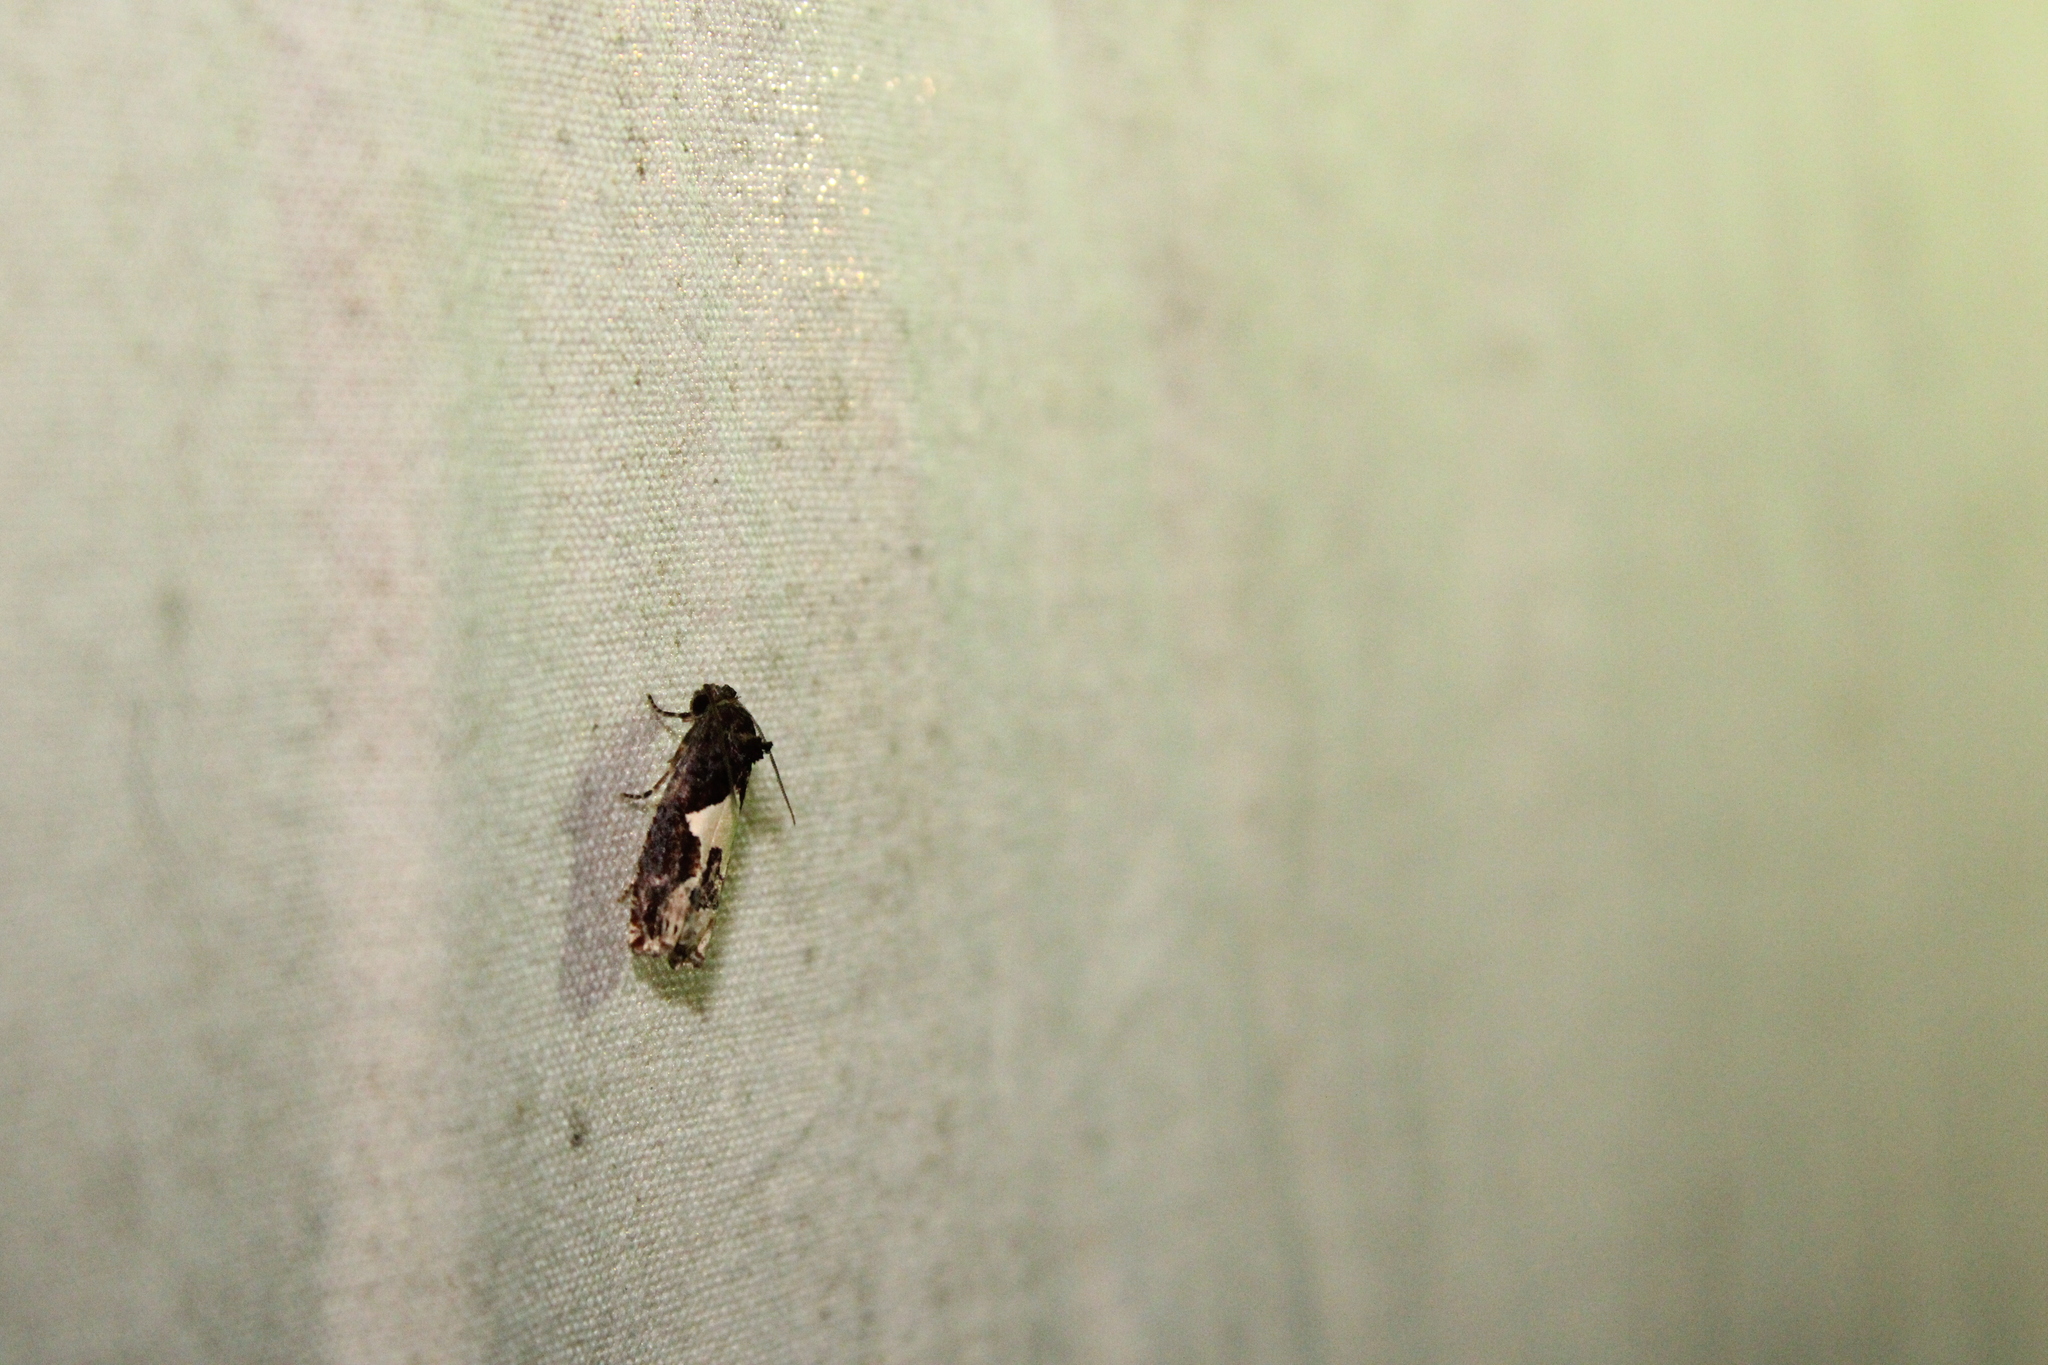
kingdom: Animalia
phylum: Arthropoda
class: Insecta
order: Lepidoptera
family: Tortricidae
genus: Epiblema
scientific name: Epiblema otiosana
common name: Bidens borer moth
